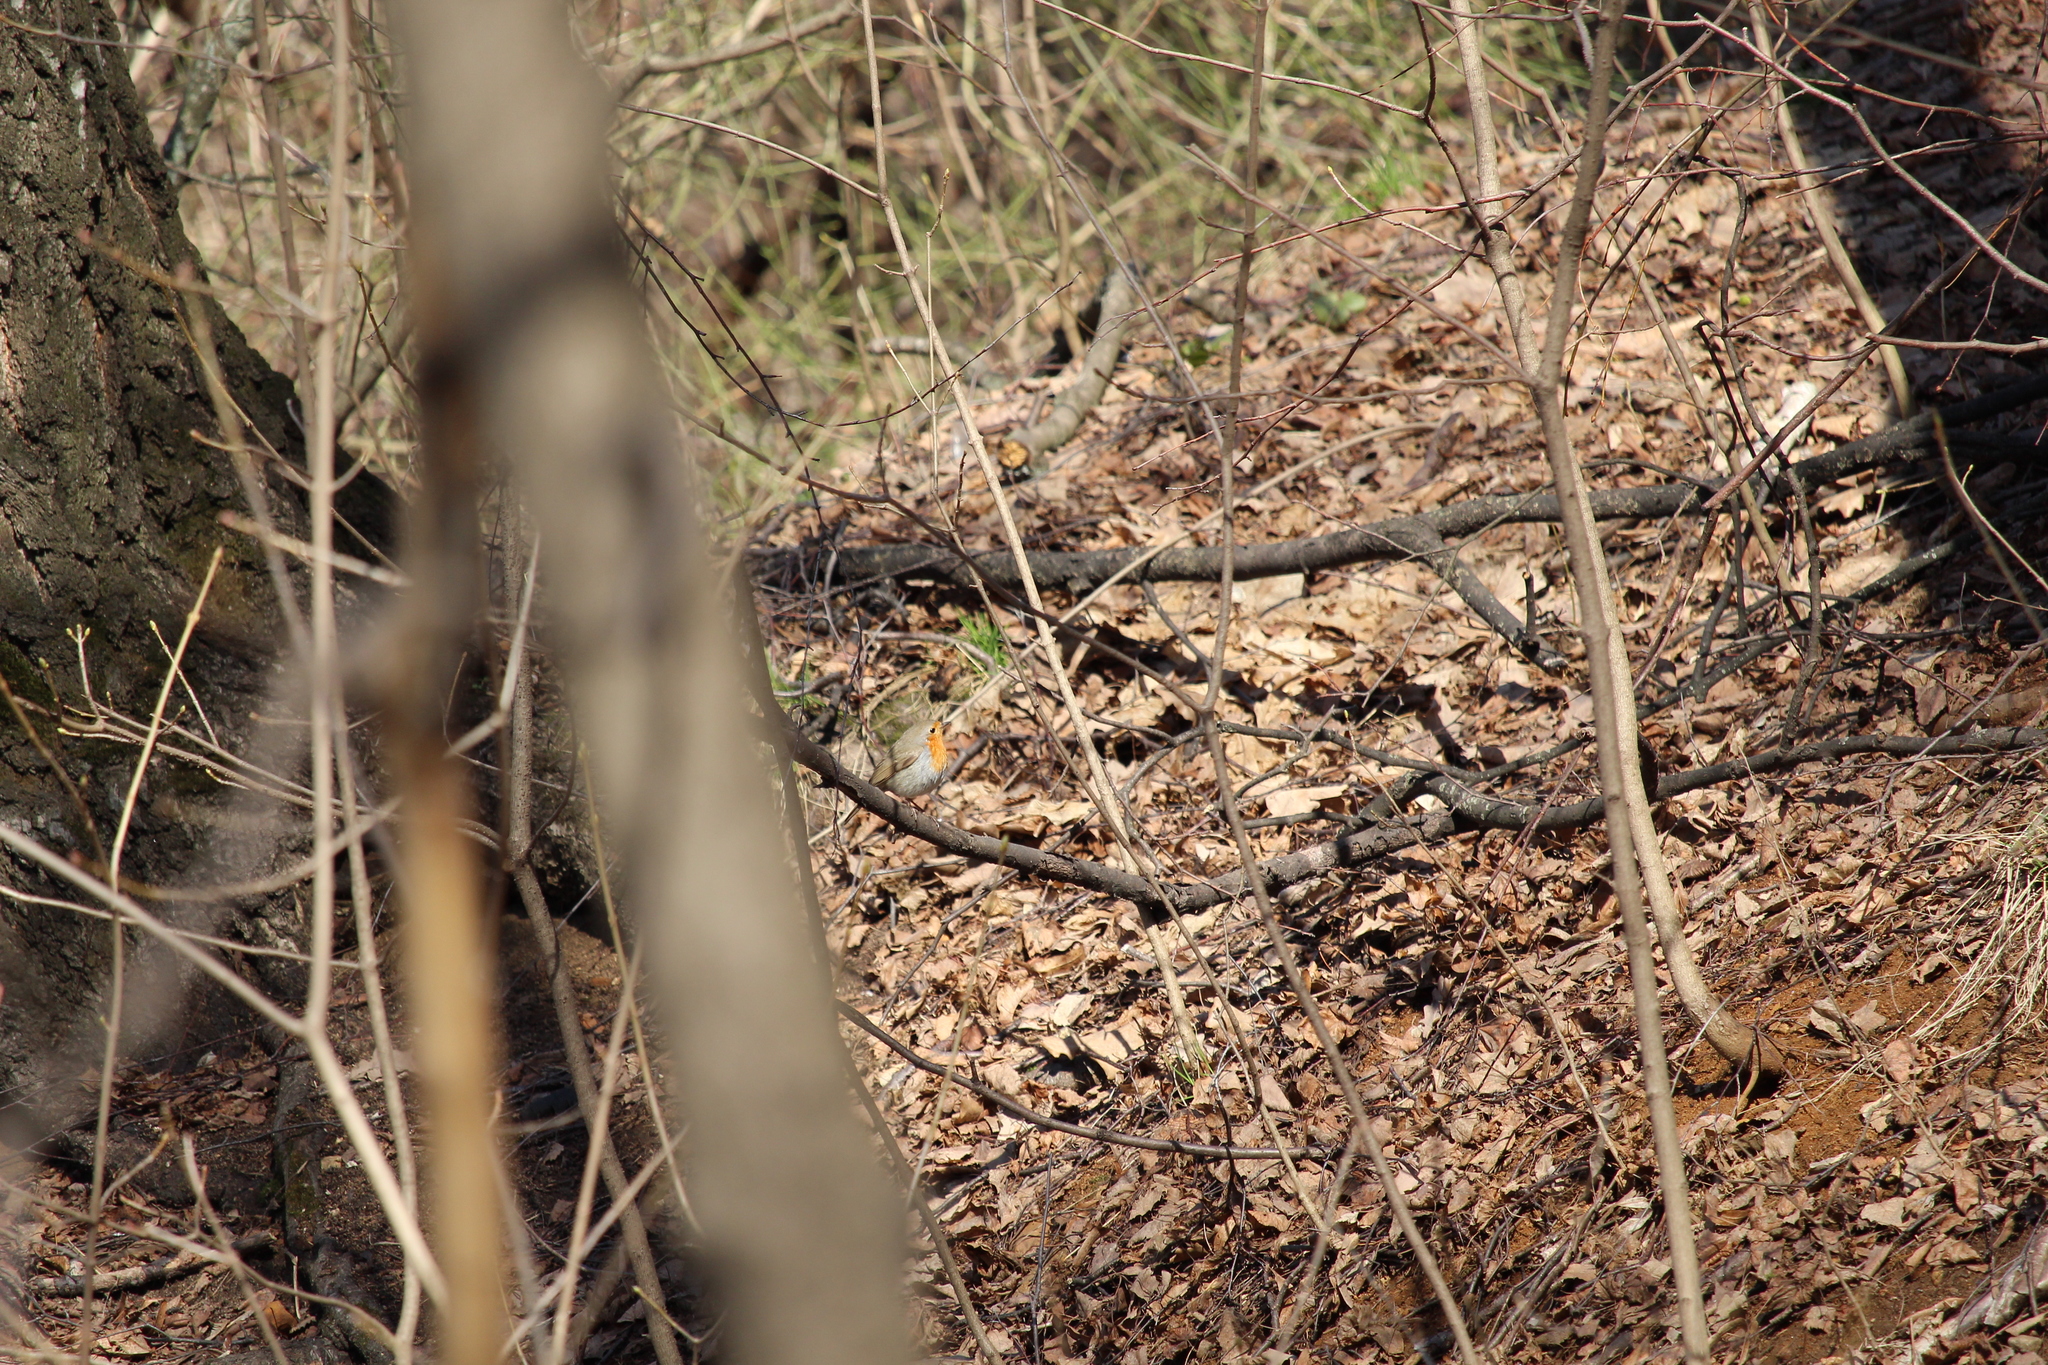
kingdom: Animalia
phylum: Chordata
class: Aves
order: Passeriformes
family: Muscicapidae
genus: Erithacus
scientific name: Erithacus rubecula
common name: European robin
